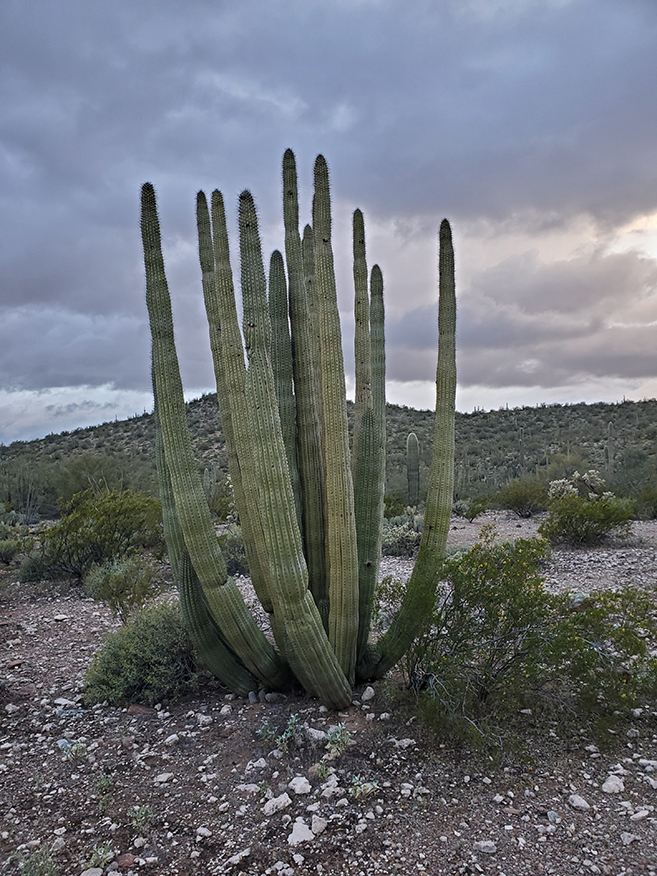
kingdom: Plantae
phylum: Tracheophyta
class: Magnoliopsida
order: Caryophyllales
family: Cactaceae
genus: Stenocereus
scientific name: Stenocereus thurberi
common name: Organ pipe cactus
